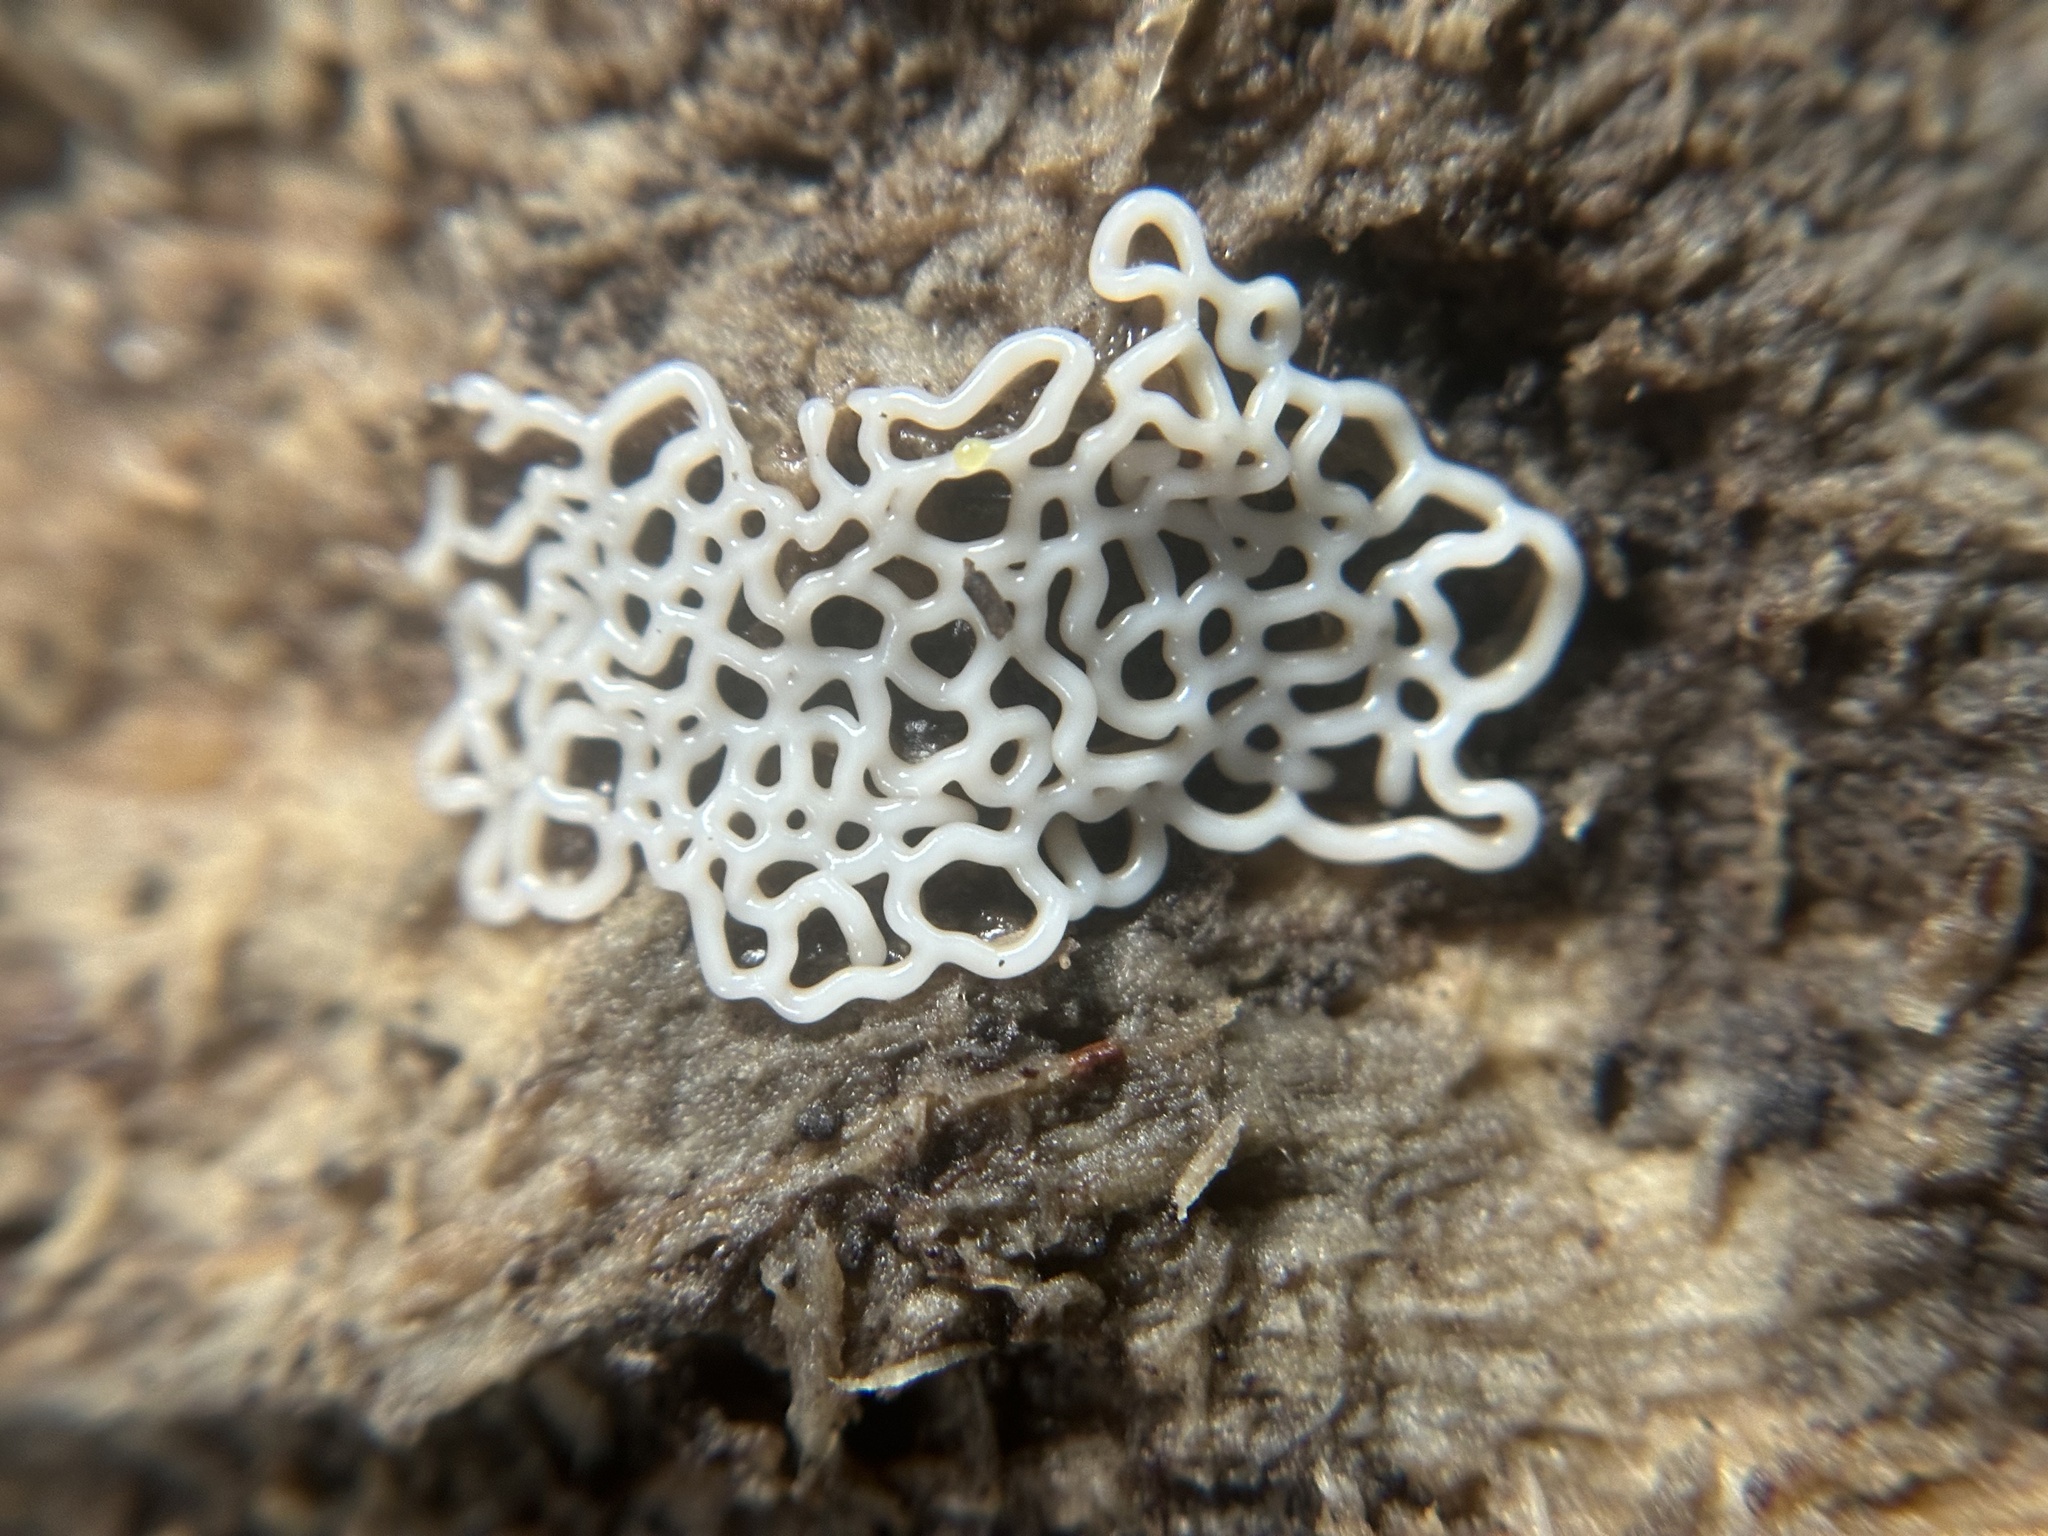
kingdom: Protozoa
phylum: Mycetozoa
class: Myxomycetes
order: Trichiales
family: Arcyriaceae
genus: Hemitrichia
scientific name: Hemitrichia serpula
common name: Pretzel slime mold
